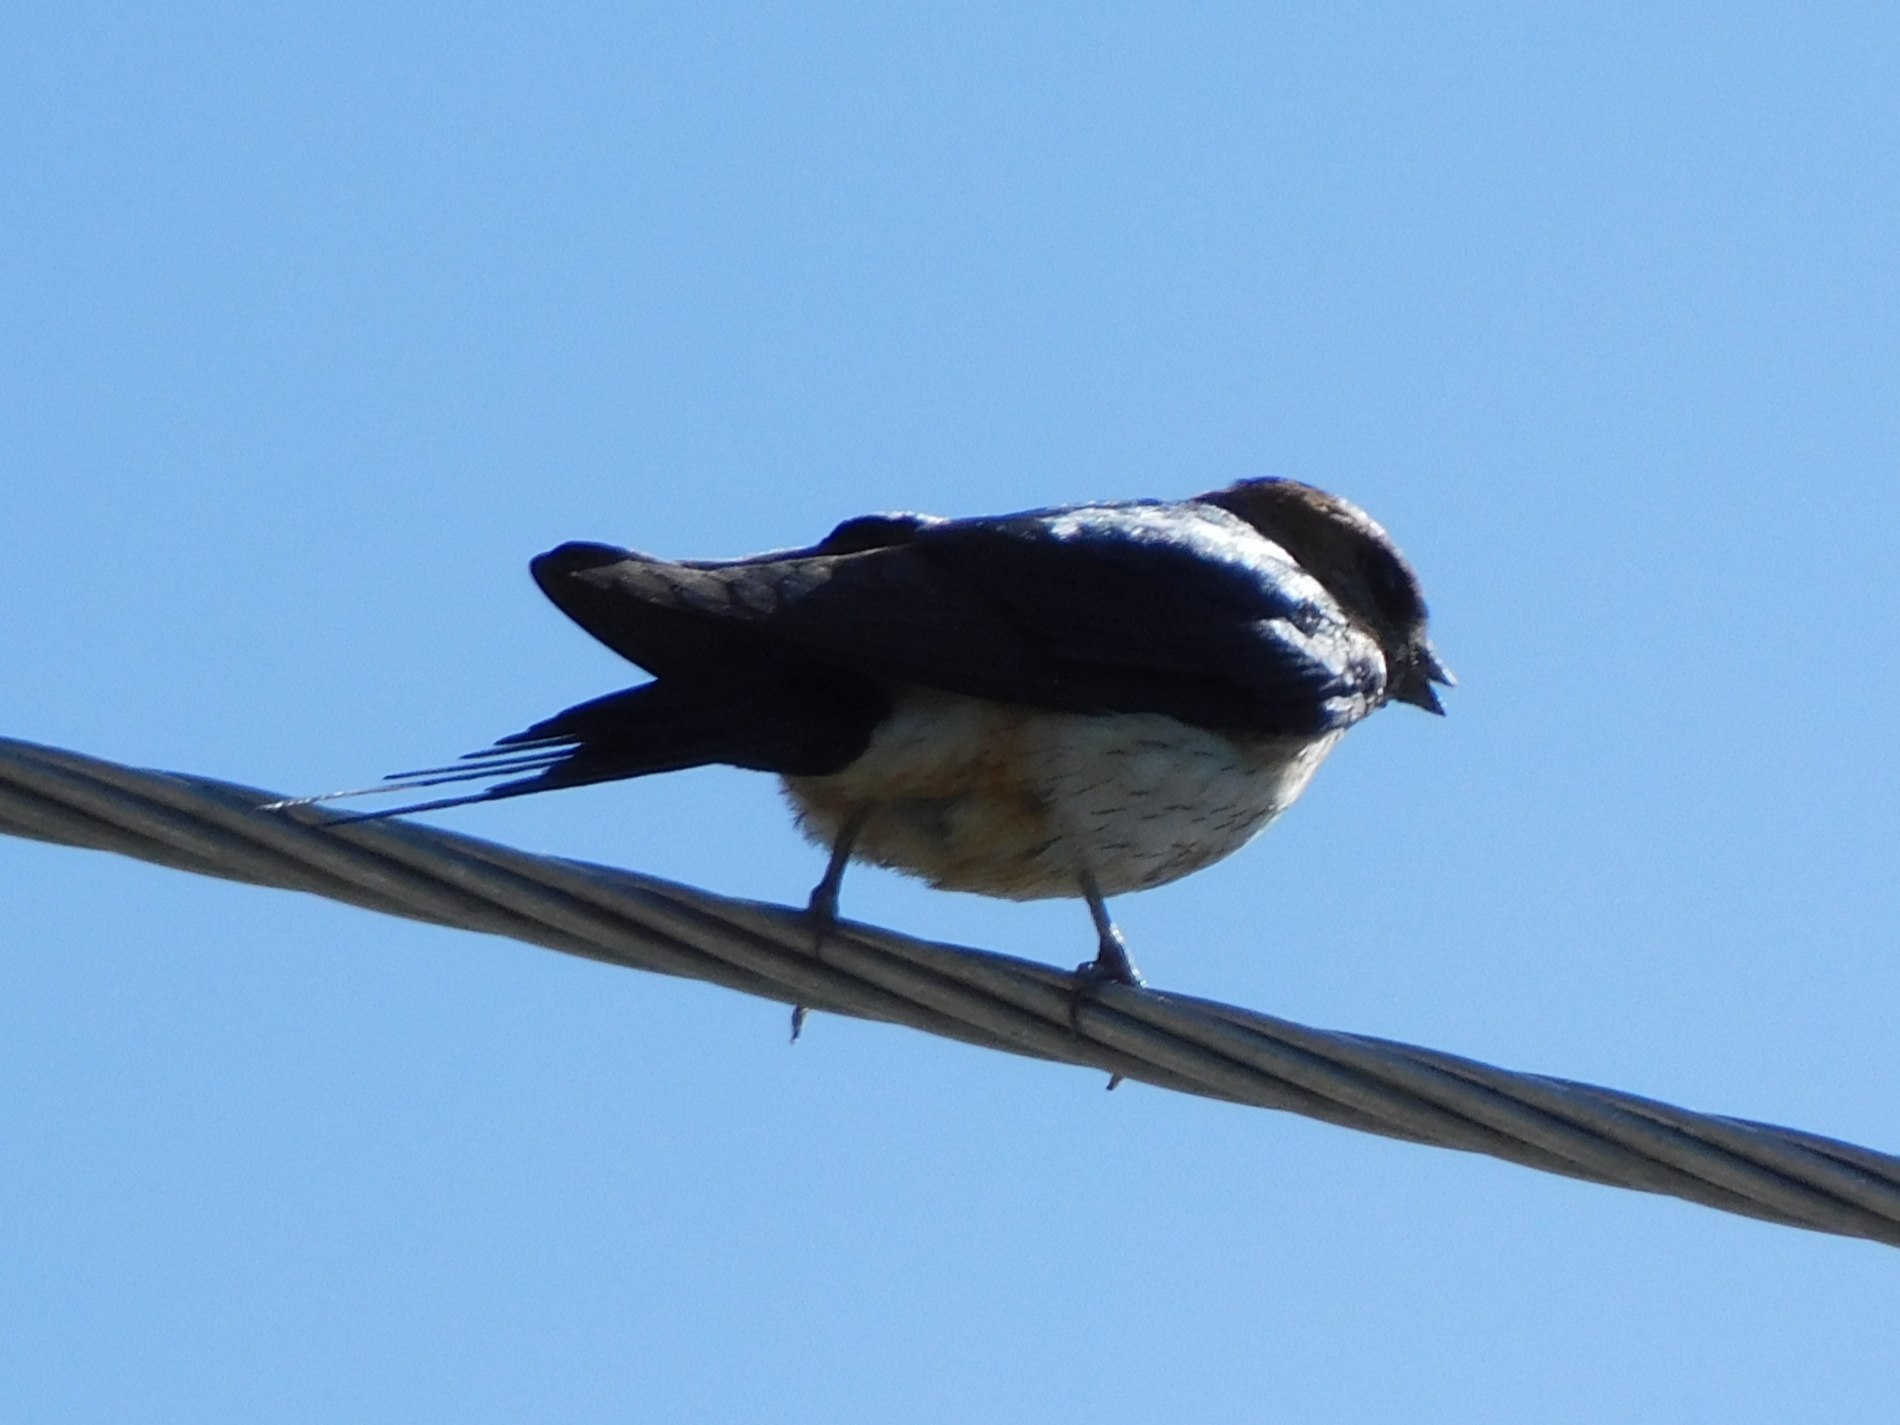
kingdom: Animalia
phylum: Chordata
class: Aves
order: Passeriformes
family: Hirundinidae
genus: Petrochelidon
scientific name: Petrochelidon fluvicola
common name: Streak-throated swallow
